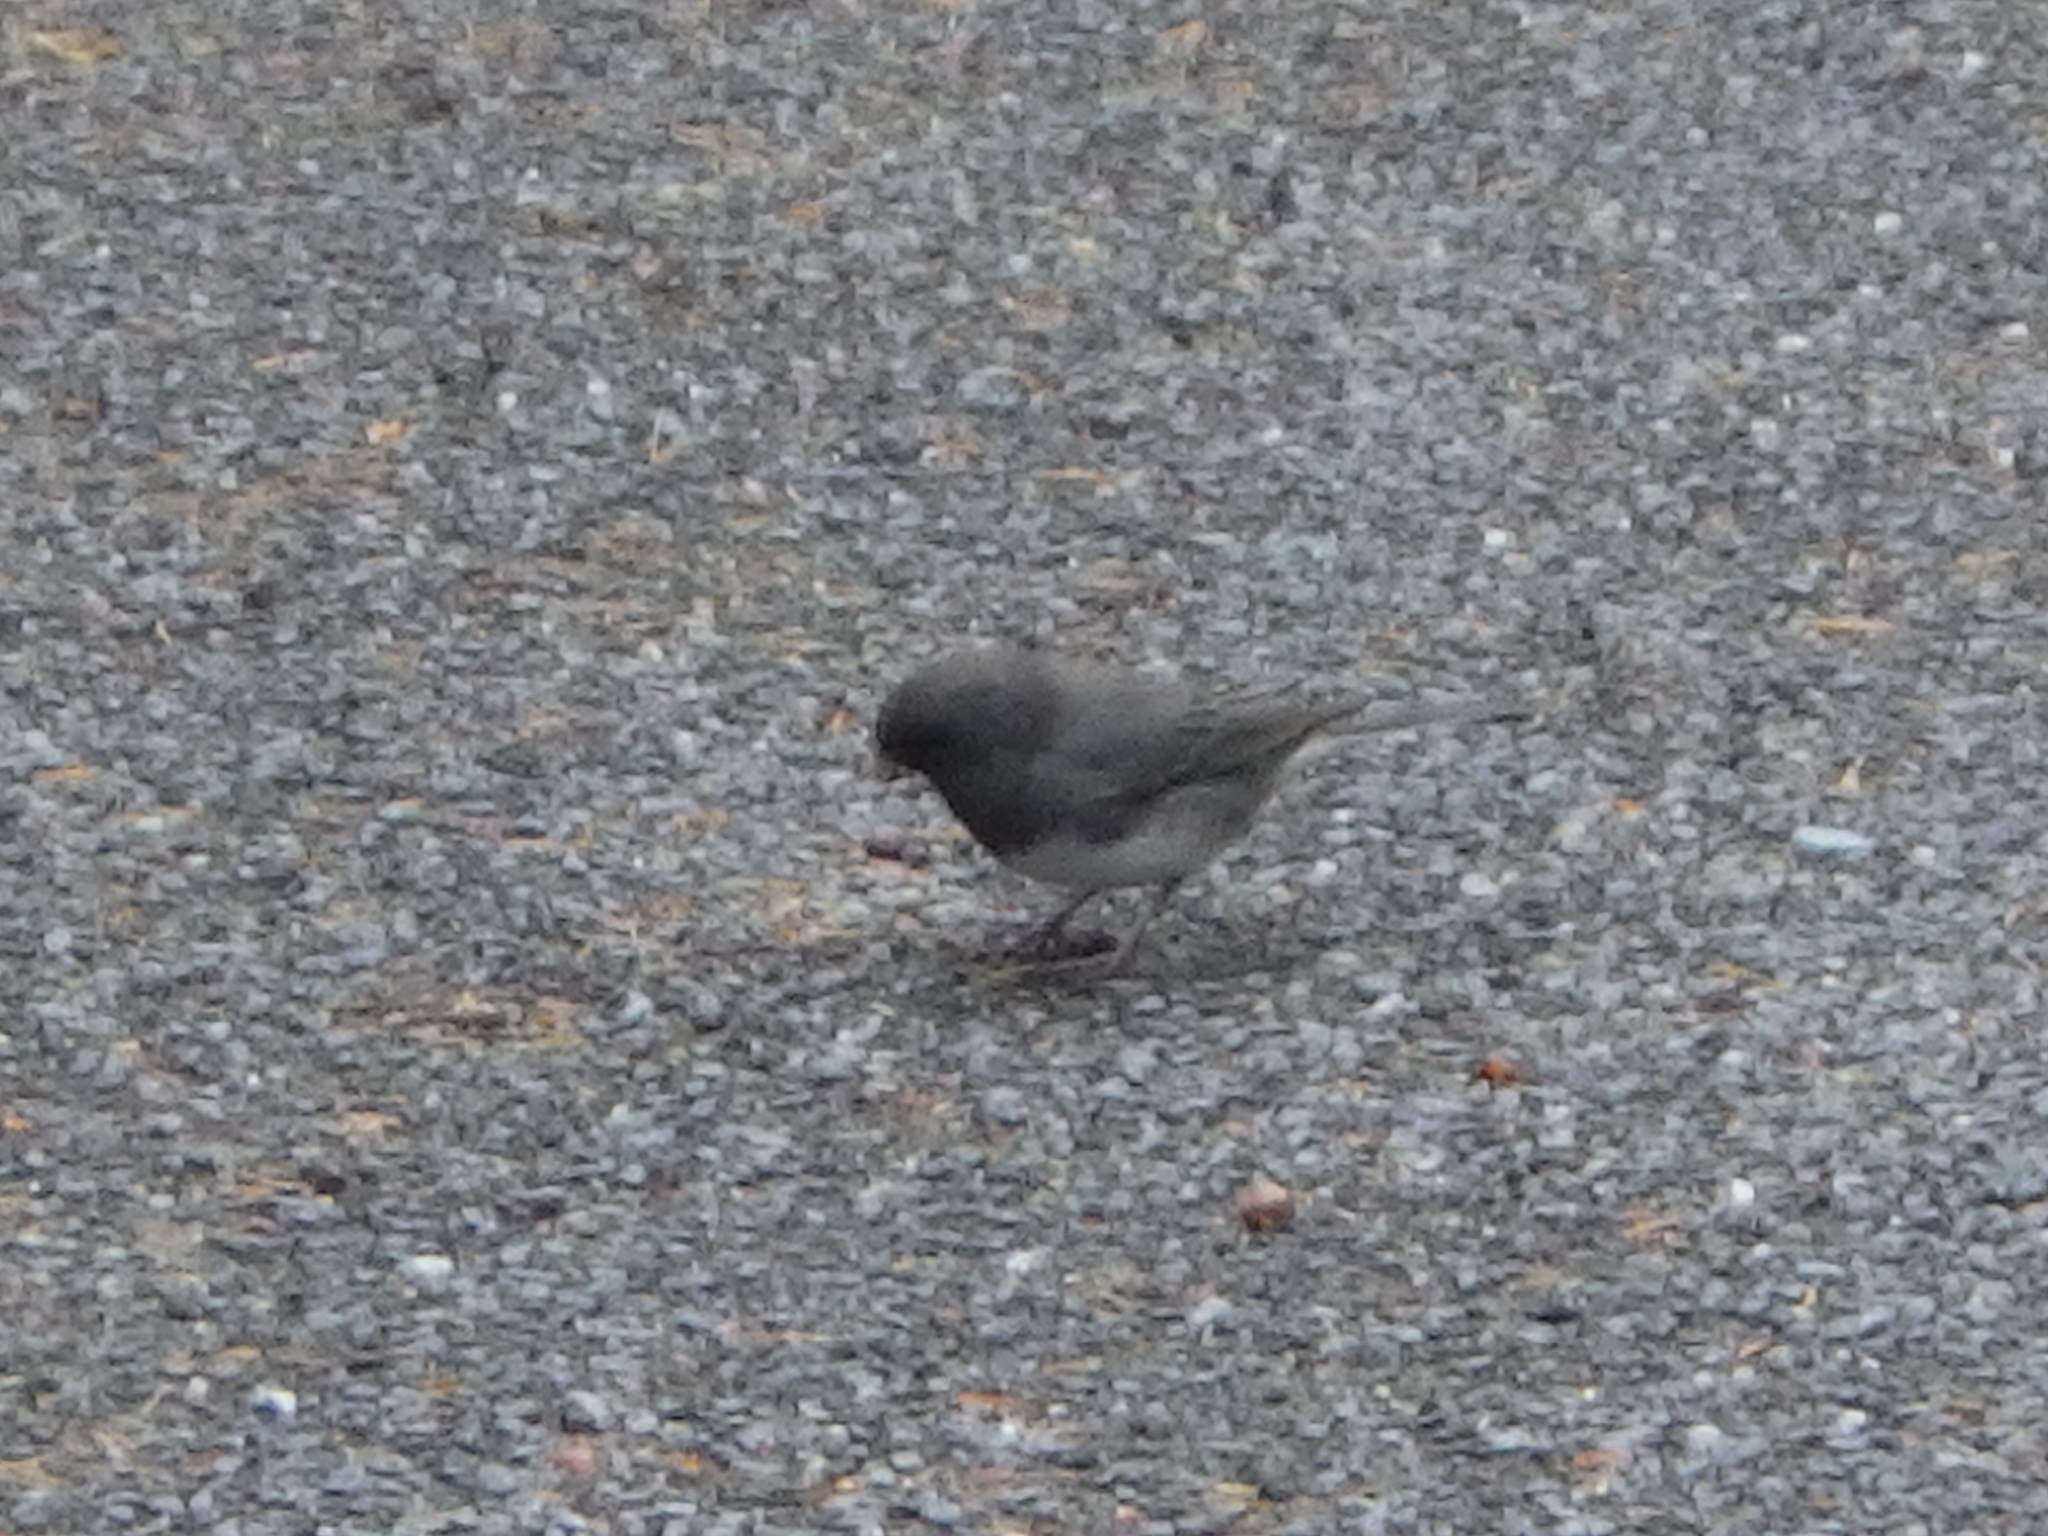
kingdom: Animalia
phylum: Chordata
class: Aves
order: Passeriformes
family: Passerellidae
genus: Junco
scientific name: Junco hyemalis
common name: Dark-eyed junco
